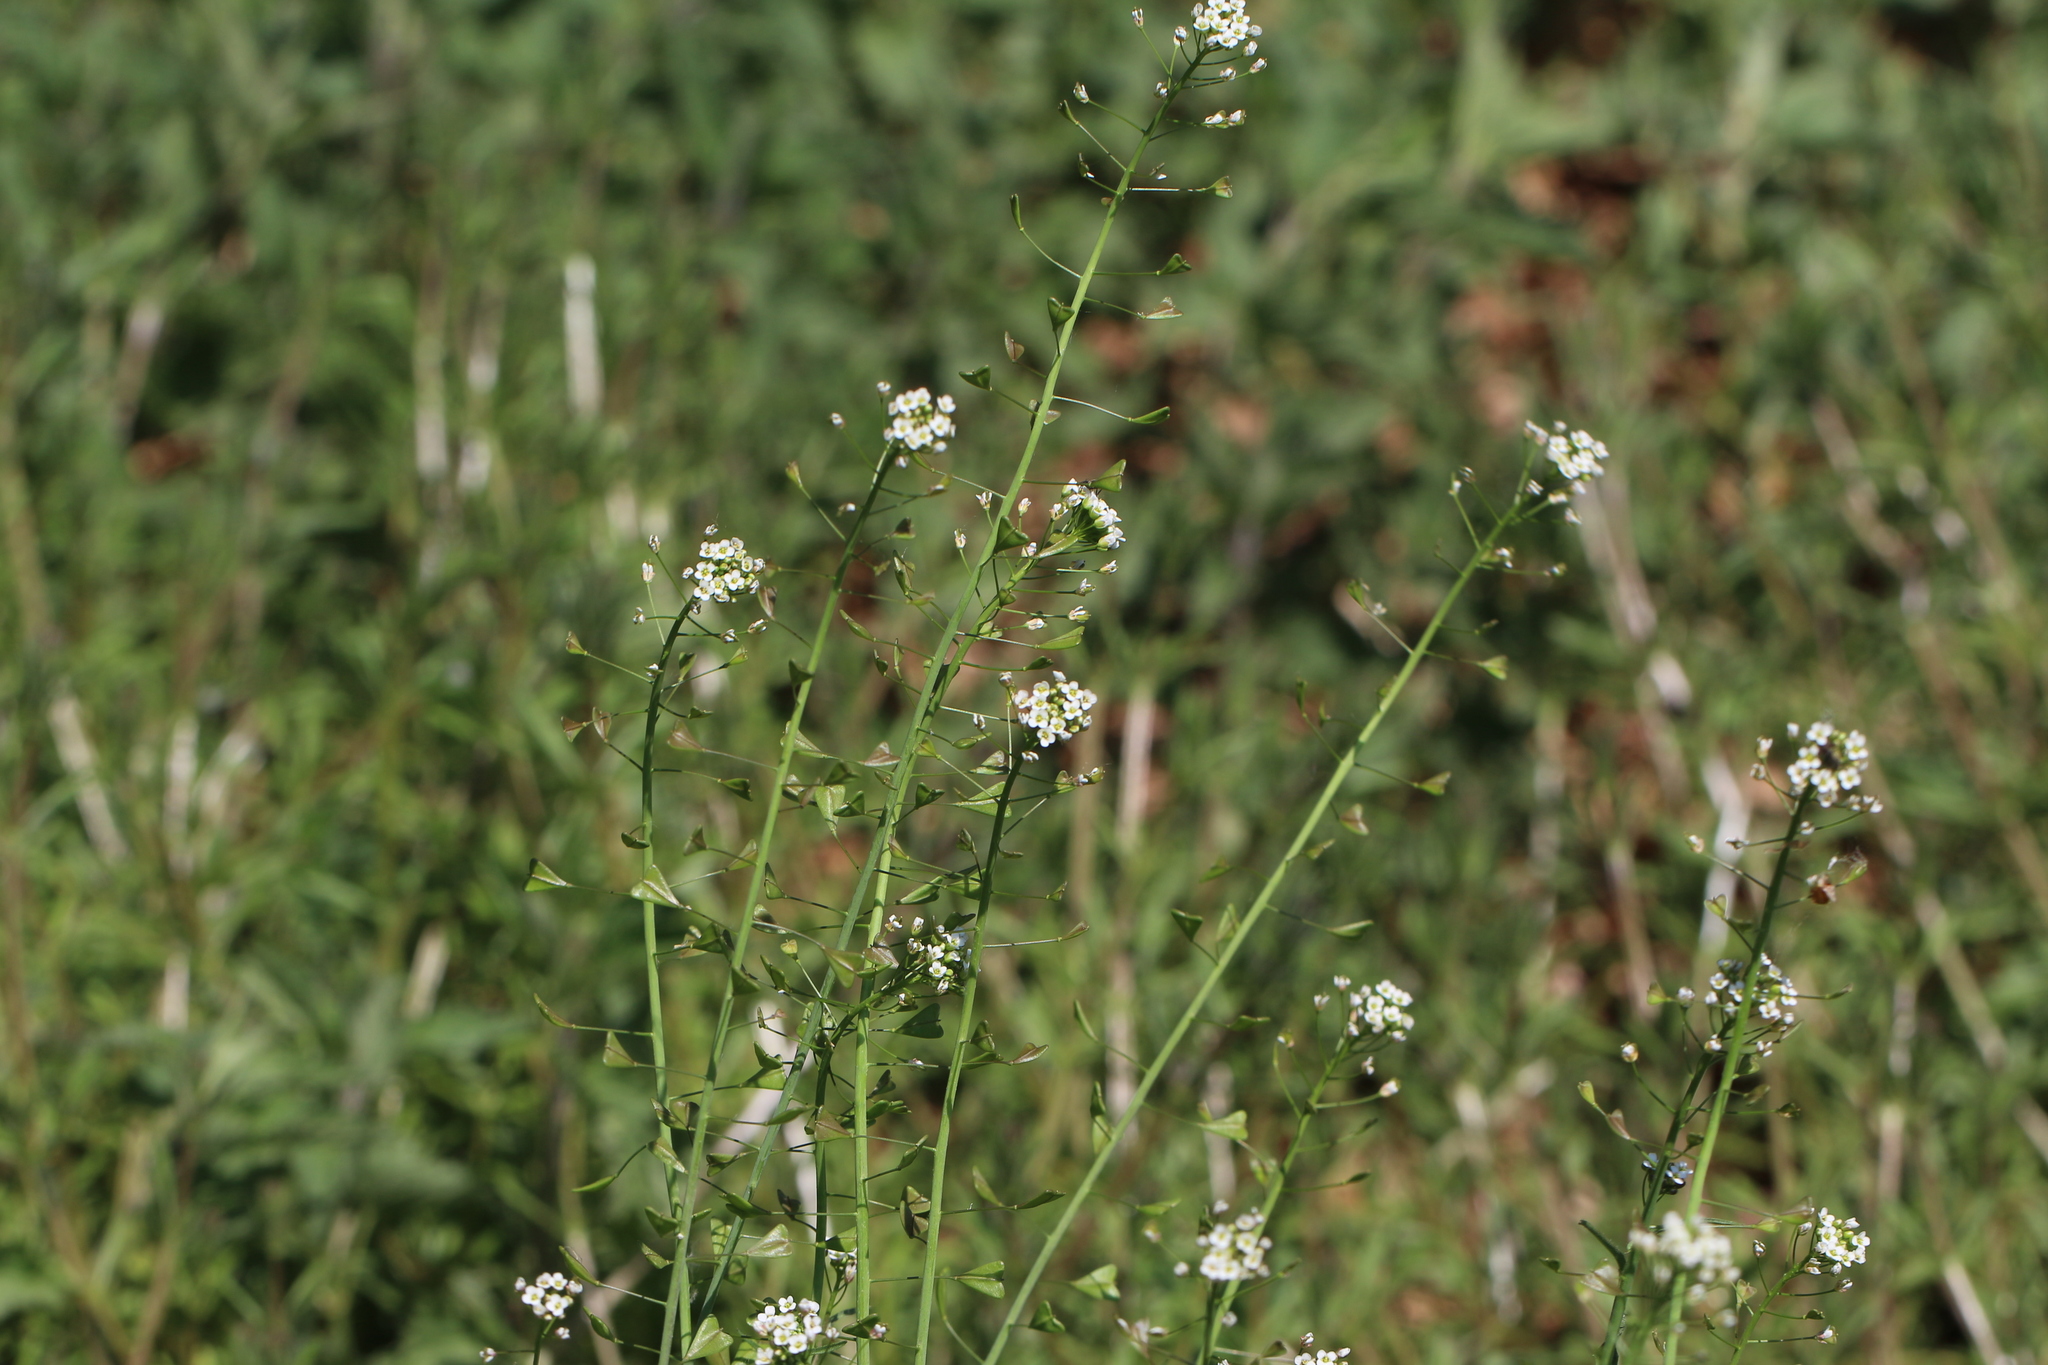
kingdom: Plantae
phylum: Tracheophyta
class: Magnoliopsida
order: Brassicales
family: Brassicaceae
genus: Capsella
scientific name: Capsella bursa-pastoris
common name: Shepherd's purse
